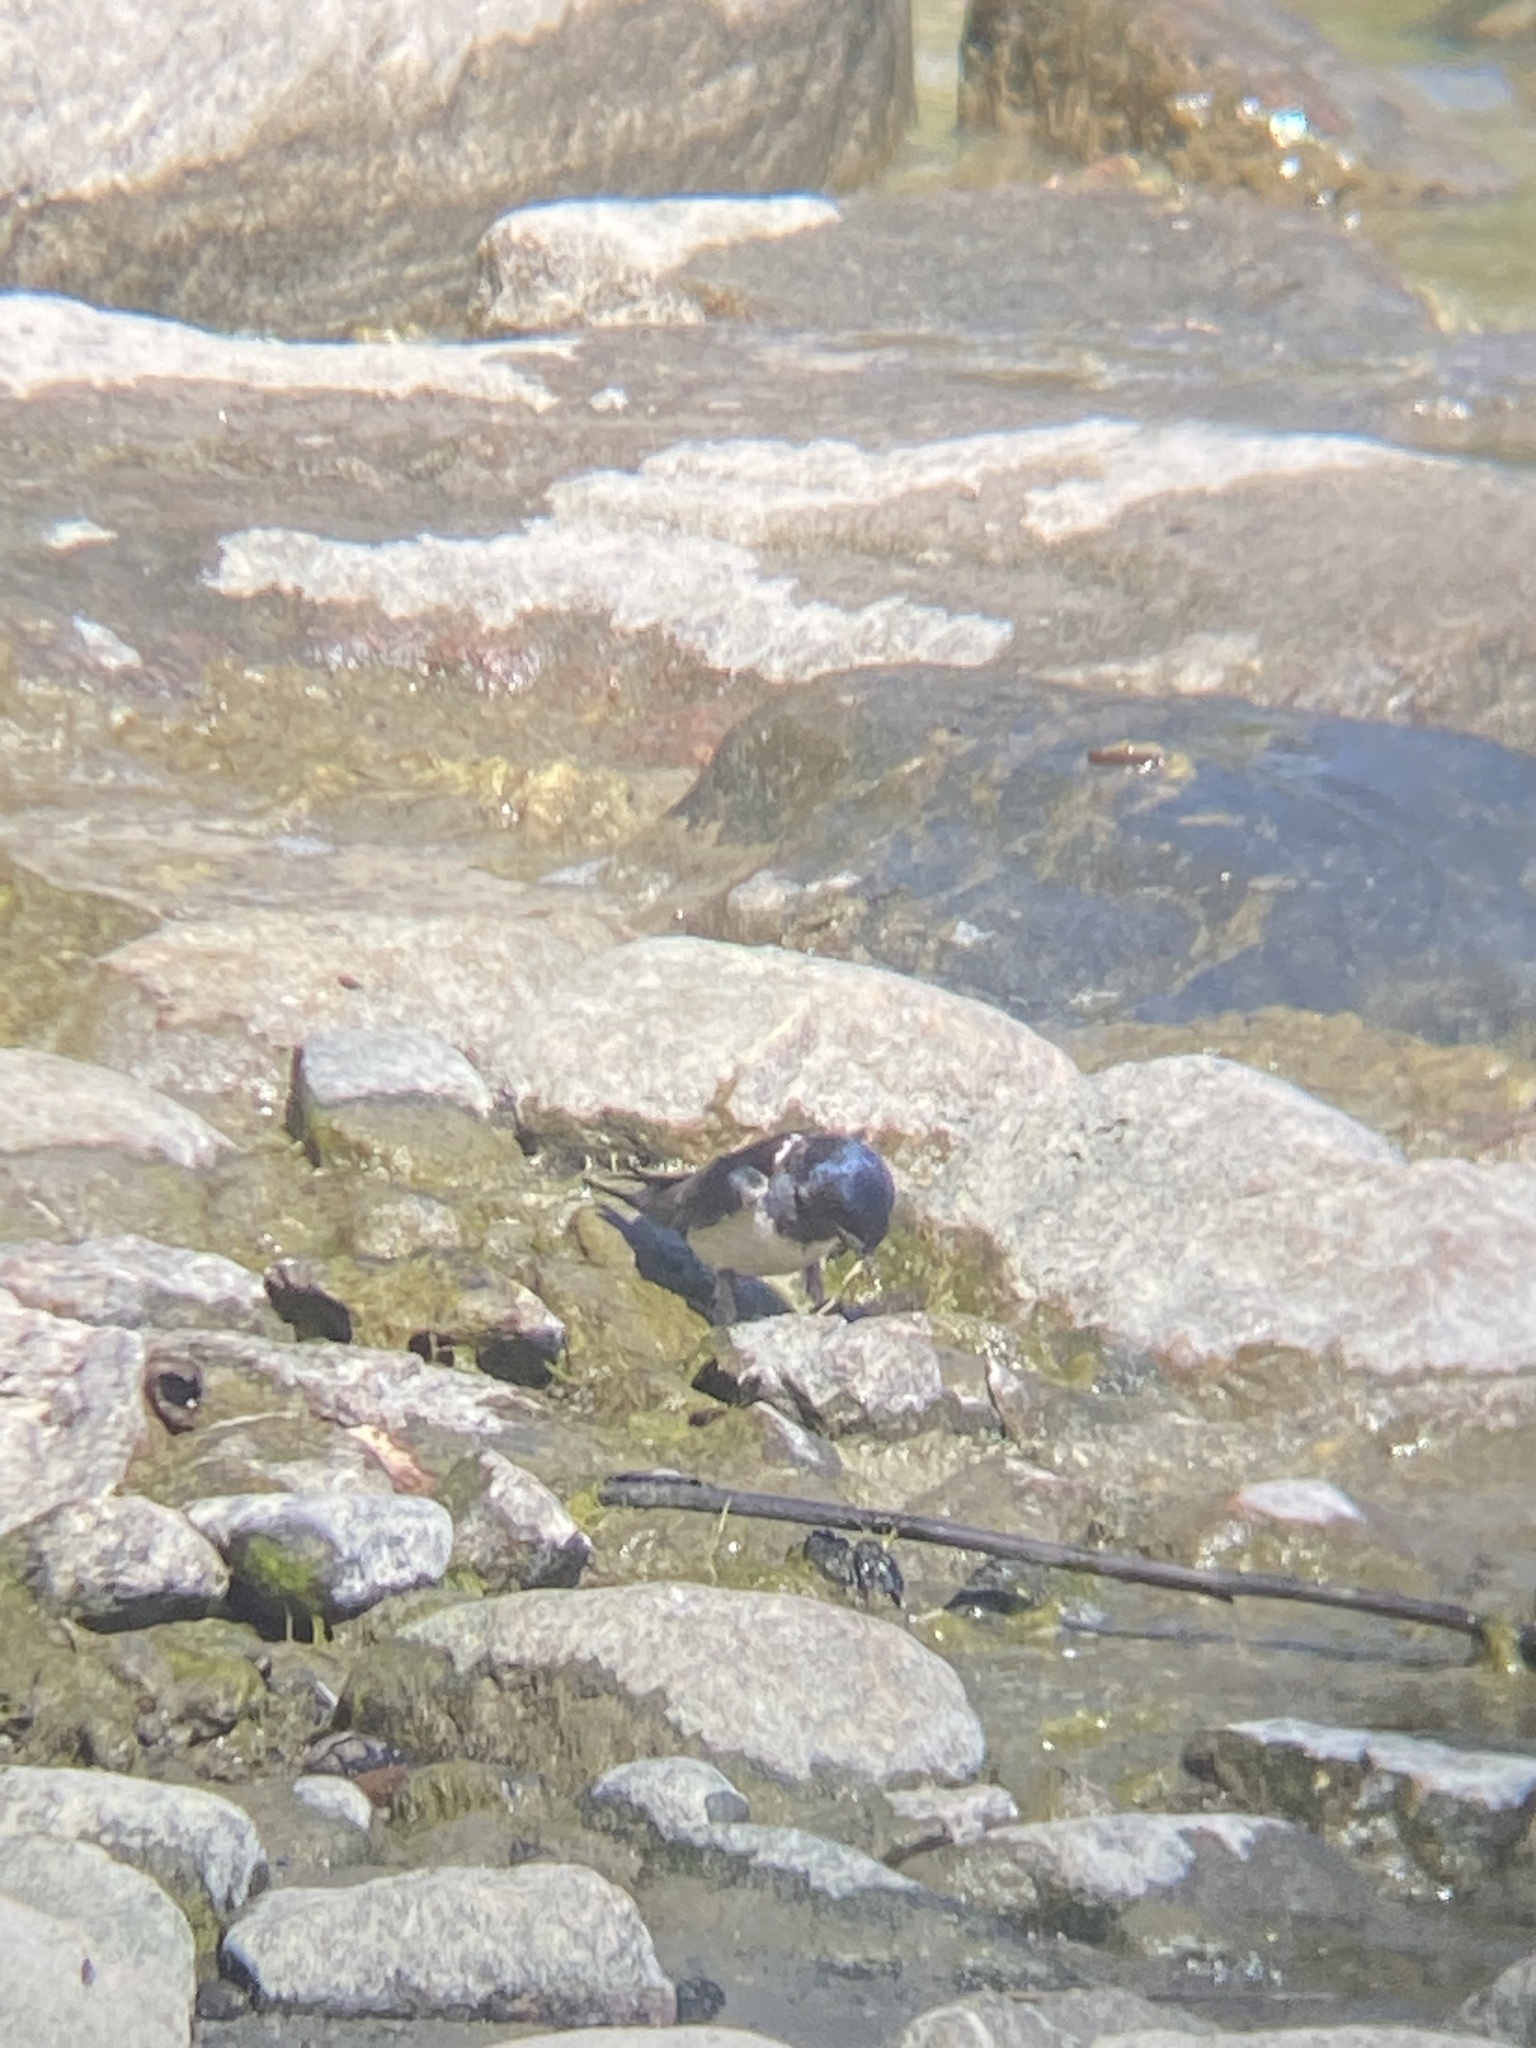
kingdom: Animalia
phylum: Chordata
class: Aves
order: Passeriformes
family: Hirundinidae
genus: Hirundo
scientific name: Hirundo rustica
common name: Barn swallow
